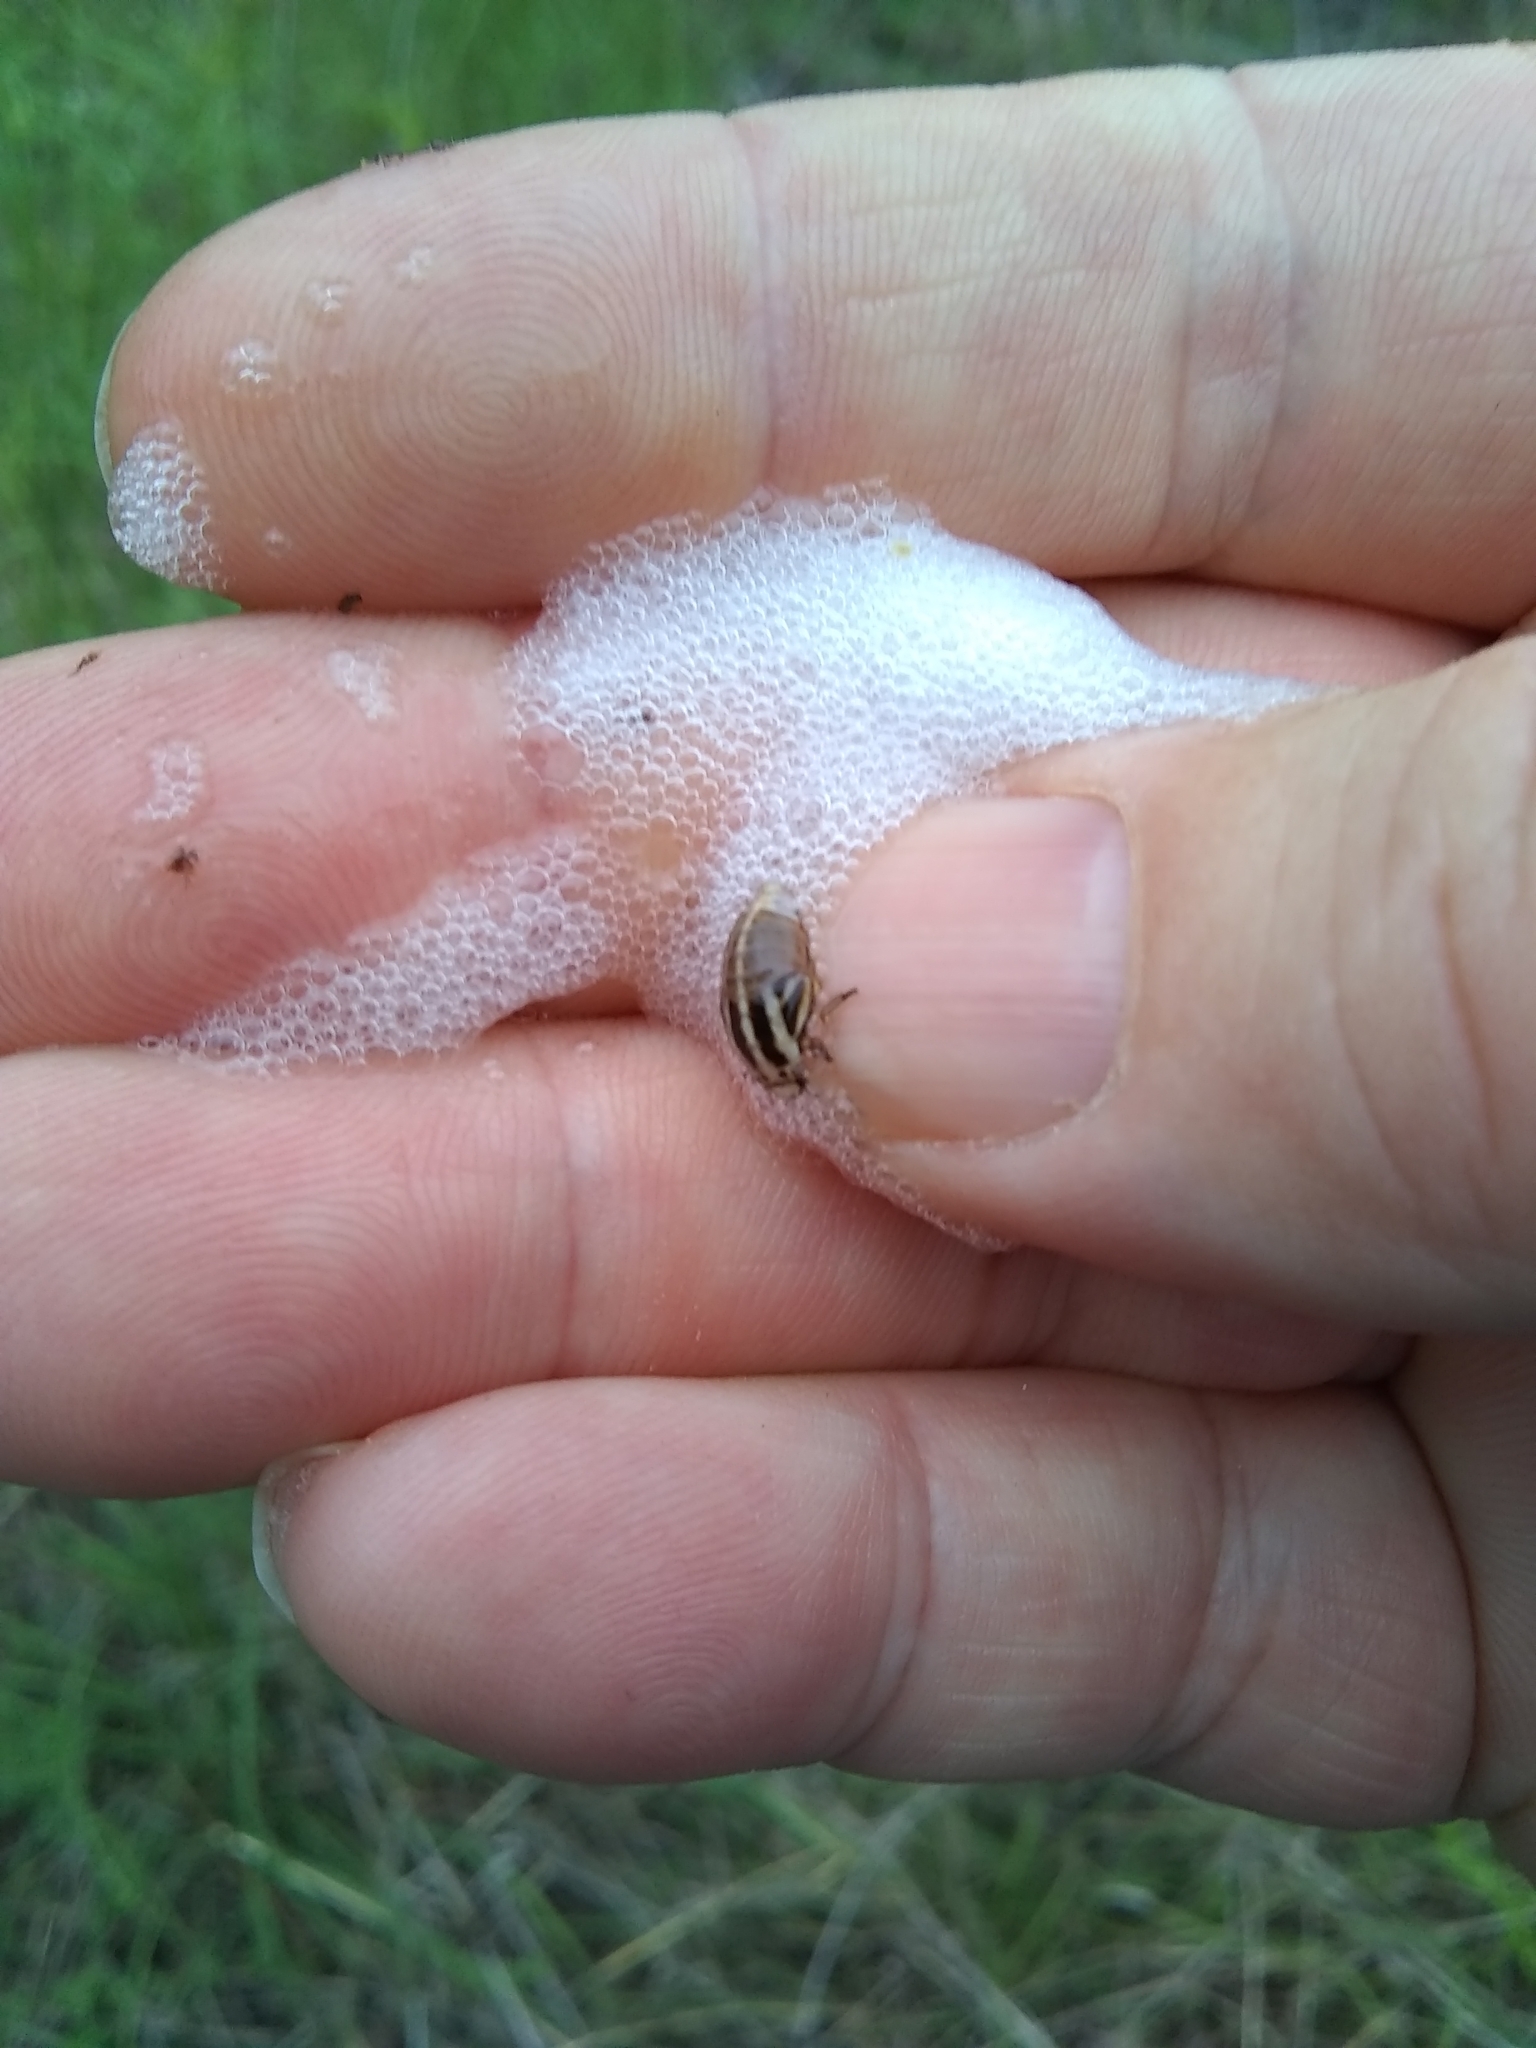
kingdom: Animalia
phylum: Arthropoda
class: Insecta
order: Hemiptera
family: Aphrophoridae
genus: Lepyronia
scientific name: Lepyronia gibbosa
